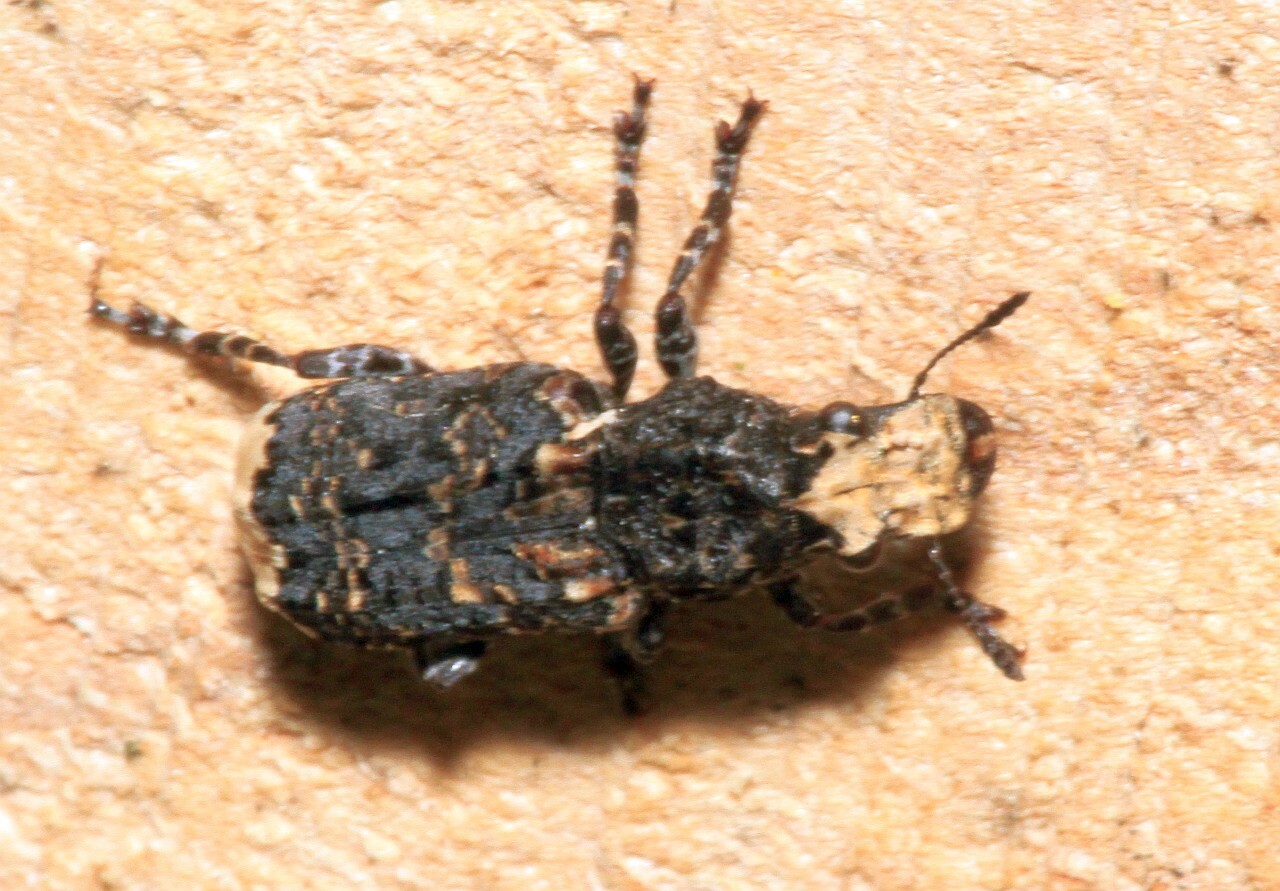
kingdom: Animalia
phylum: Arthropoda
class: Insecta
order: Coleoptera
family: Anthribidae
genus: Platyrhinus
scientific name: Platyrhinus resinosus
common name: Cramp-ball fungus weevil
